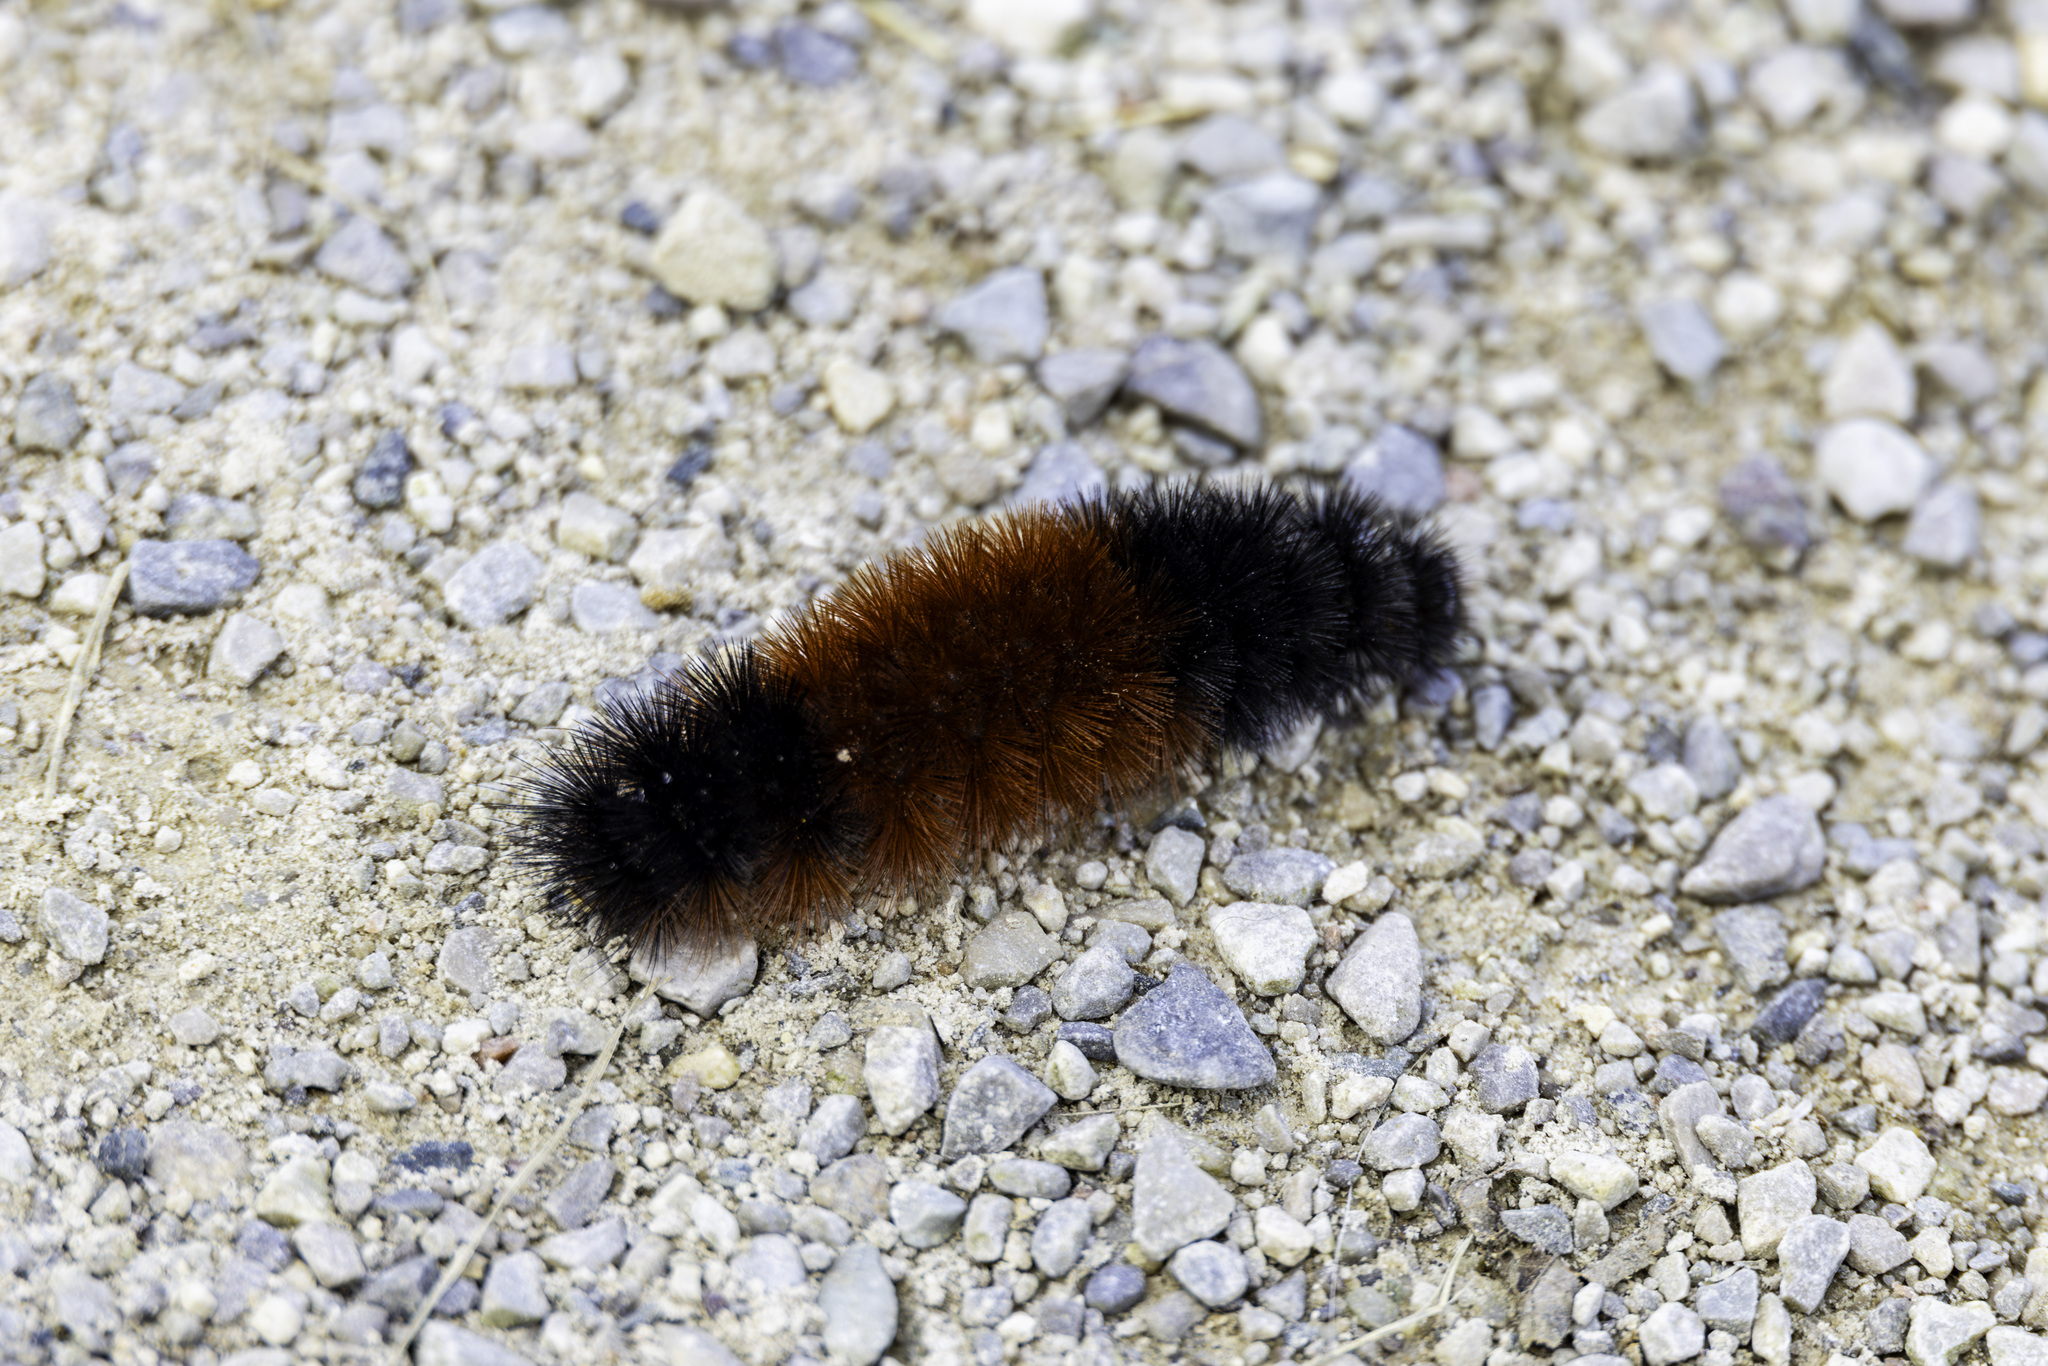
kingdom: Animalia
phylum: Arthropoda
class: Insecta
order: Lepidoptera
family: Erebidae
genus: Pyrrharctia
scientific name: Pyrrharctia isabella
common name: Isabella tiger moth
